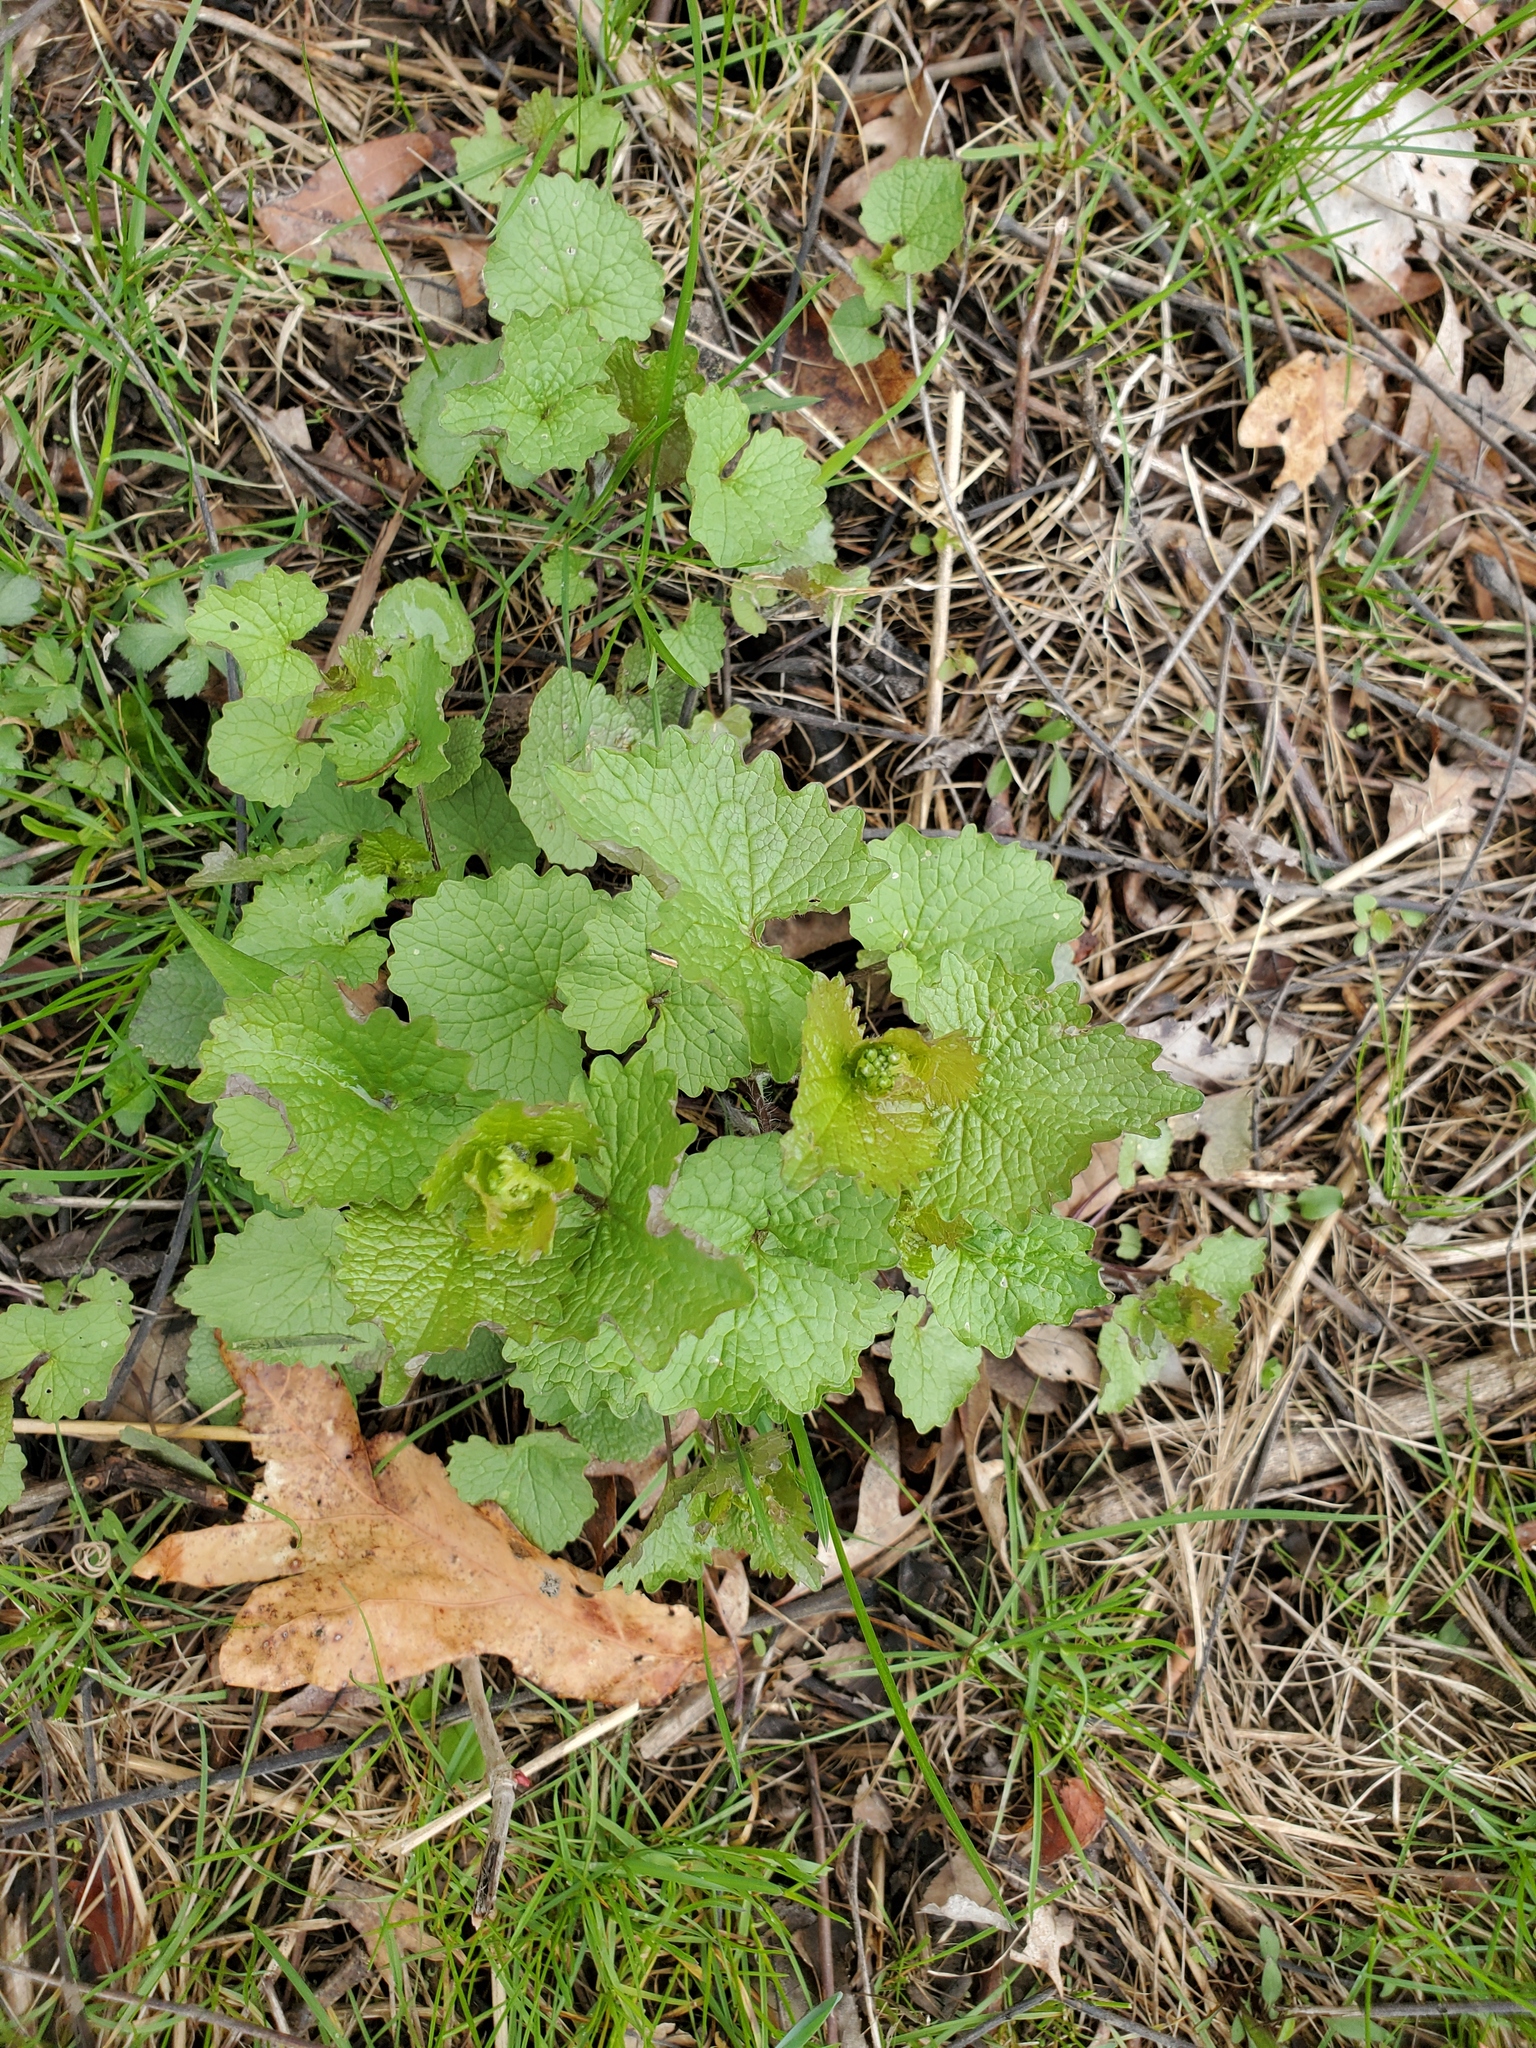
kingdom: Plantae
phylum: Tracheophyta
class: Magnoliopsida
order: Brassicales
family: Brassicaceae
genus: Alliaria
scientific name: Alliaria petiolata
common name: Garlic mustard
